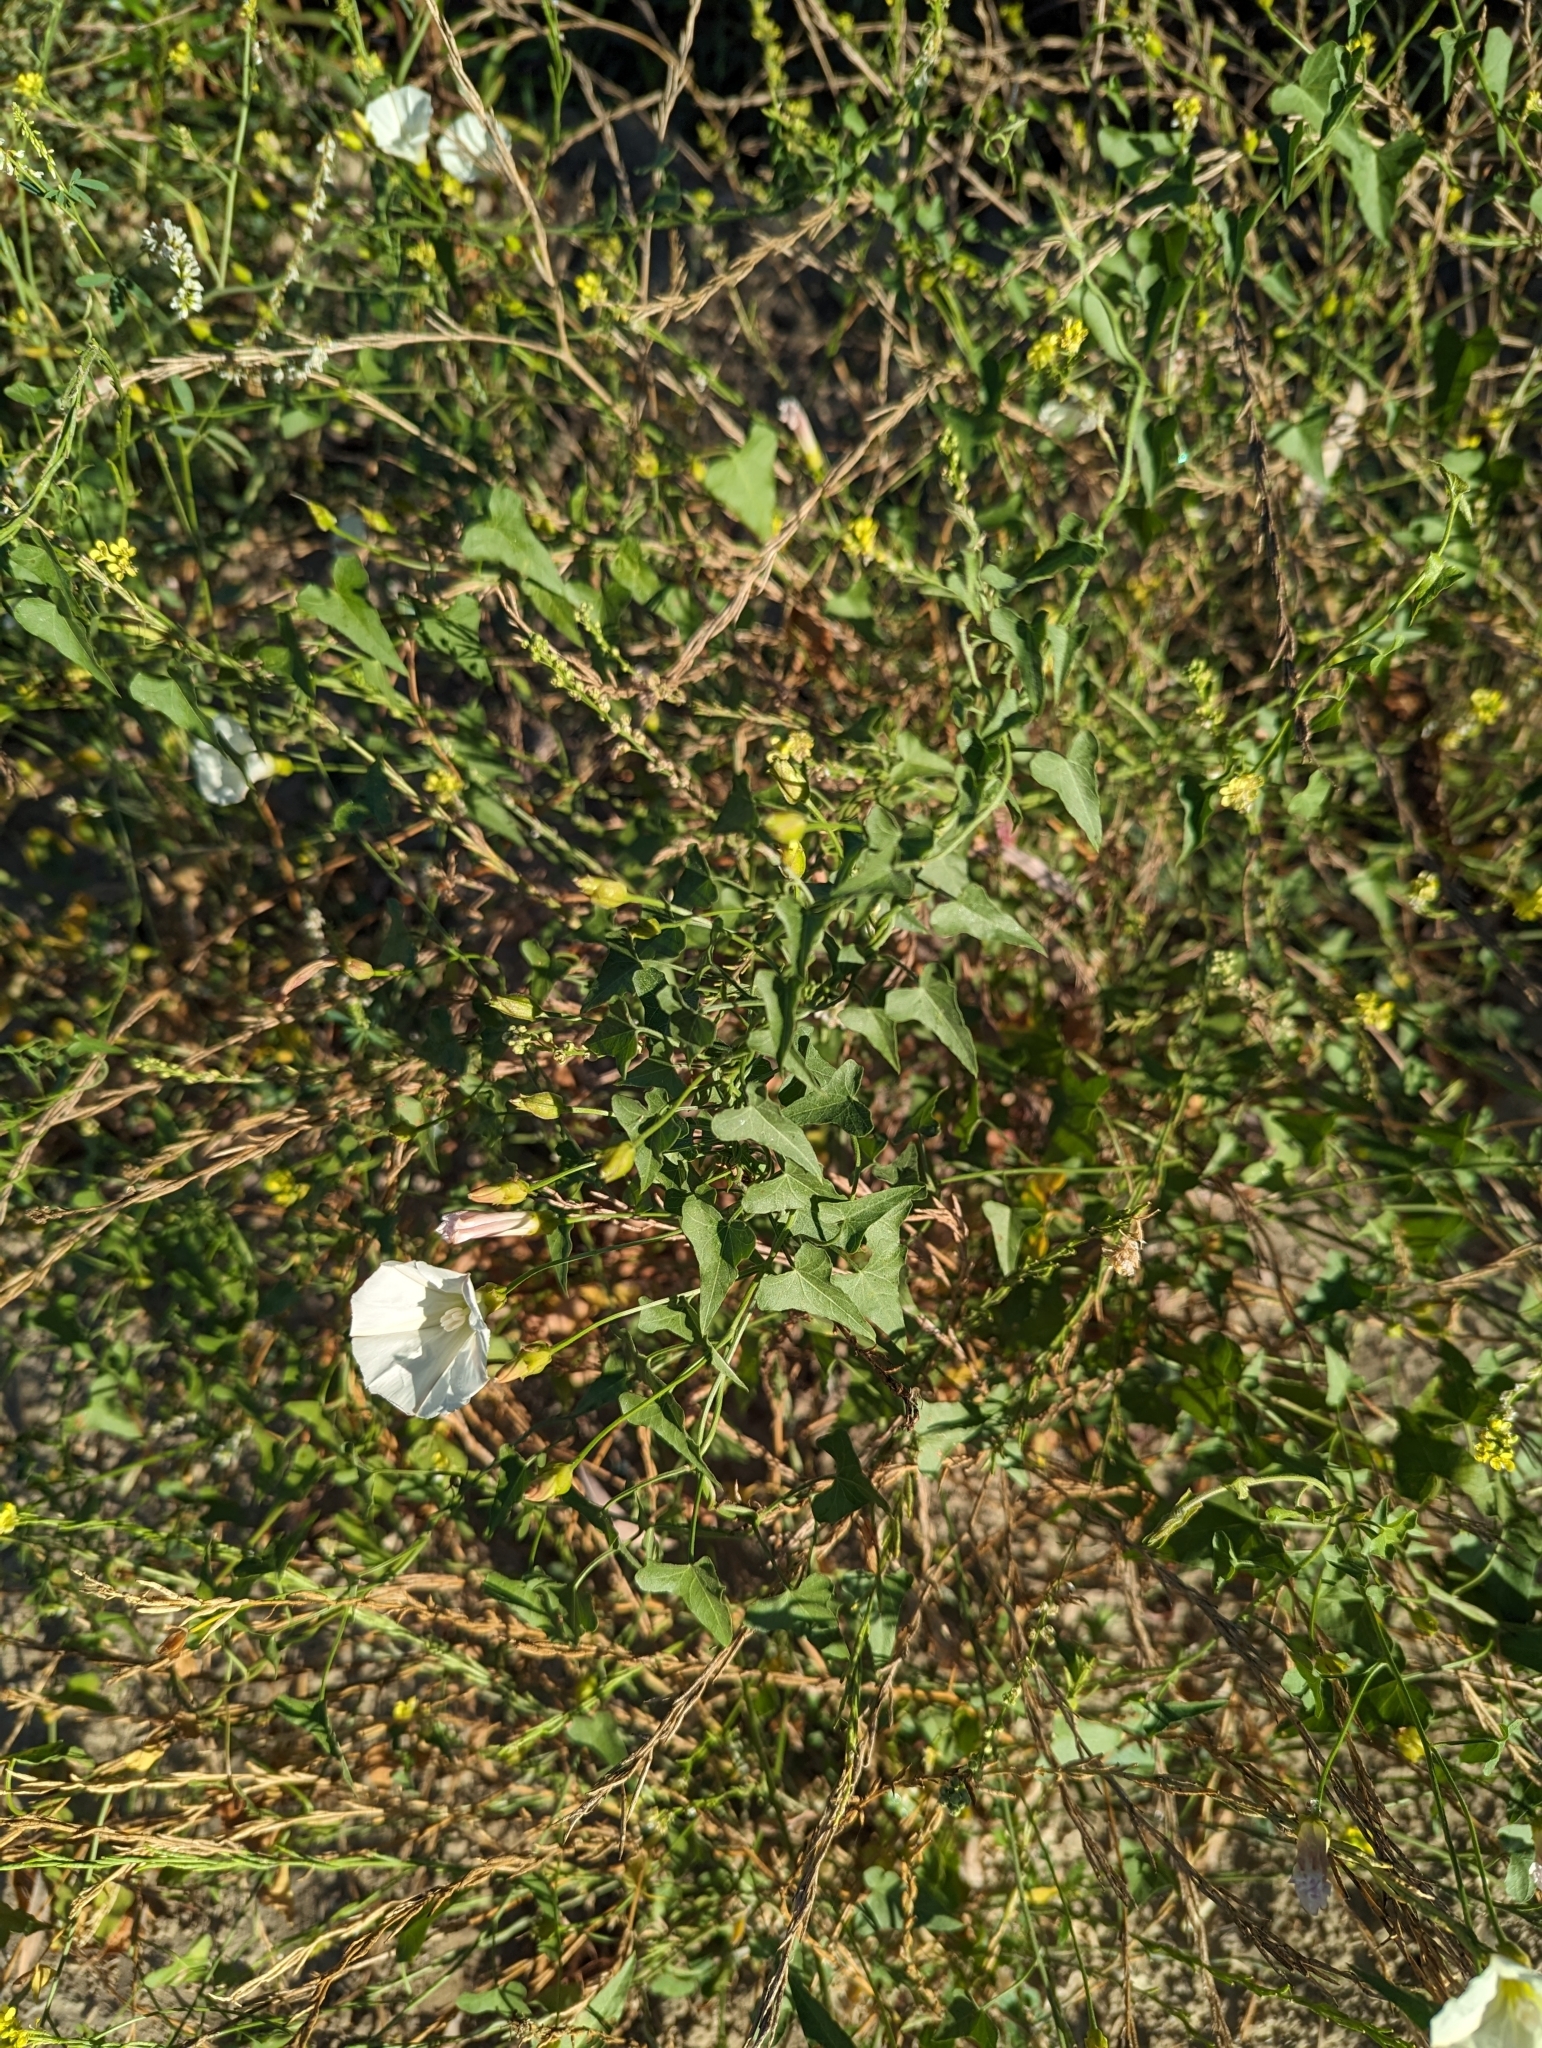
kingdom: Plantae
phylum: Tracheophyta
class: Magnoliopsida
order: Solanales
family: Convolvulaceae
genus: Calystegia
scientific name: Calystegia macrostegia
